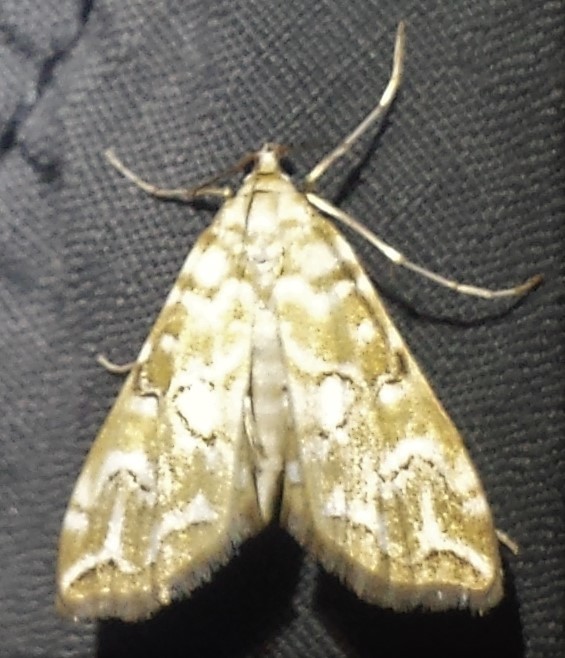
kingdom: Animalia
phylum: Arthropoda
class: Insecta
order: Lepidoptera
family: Crambidae
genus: Elophila
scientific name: Elophila icciusalis
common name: Pondside pyralid moth
